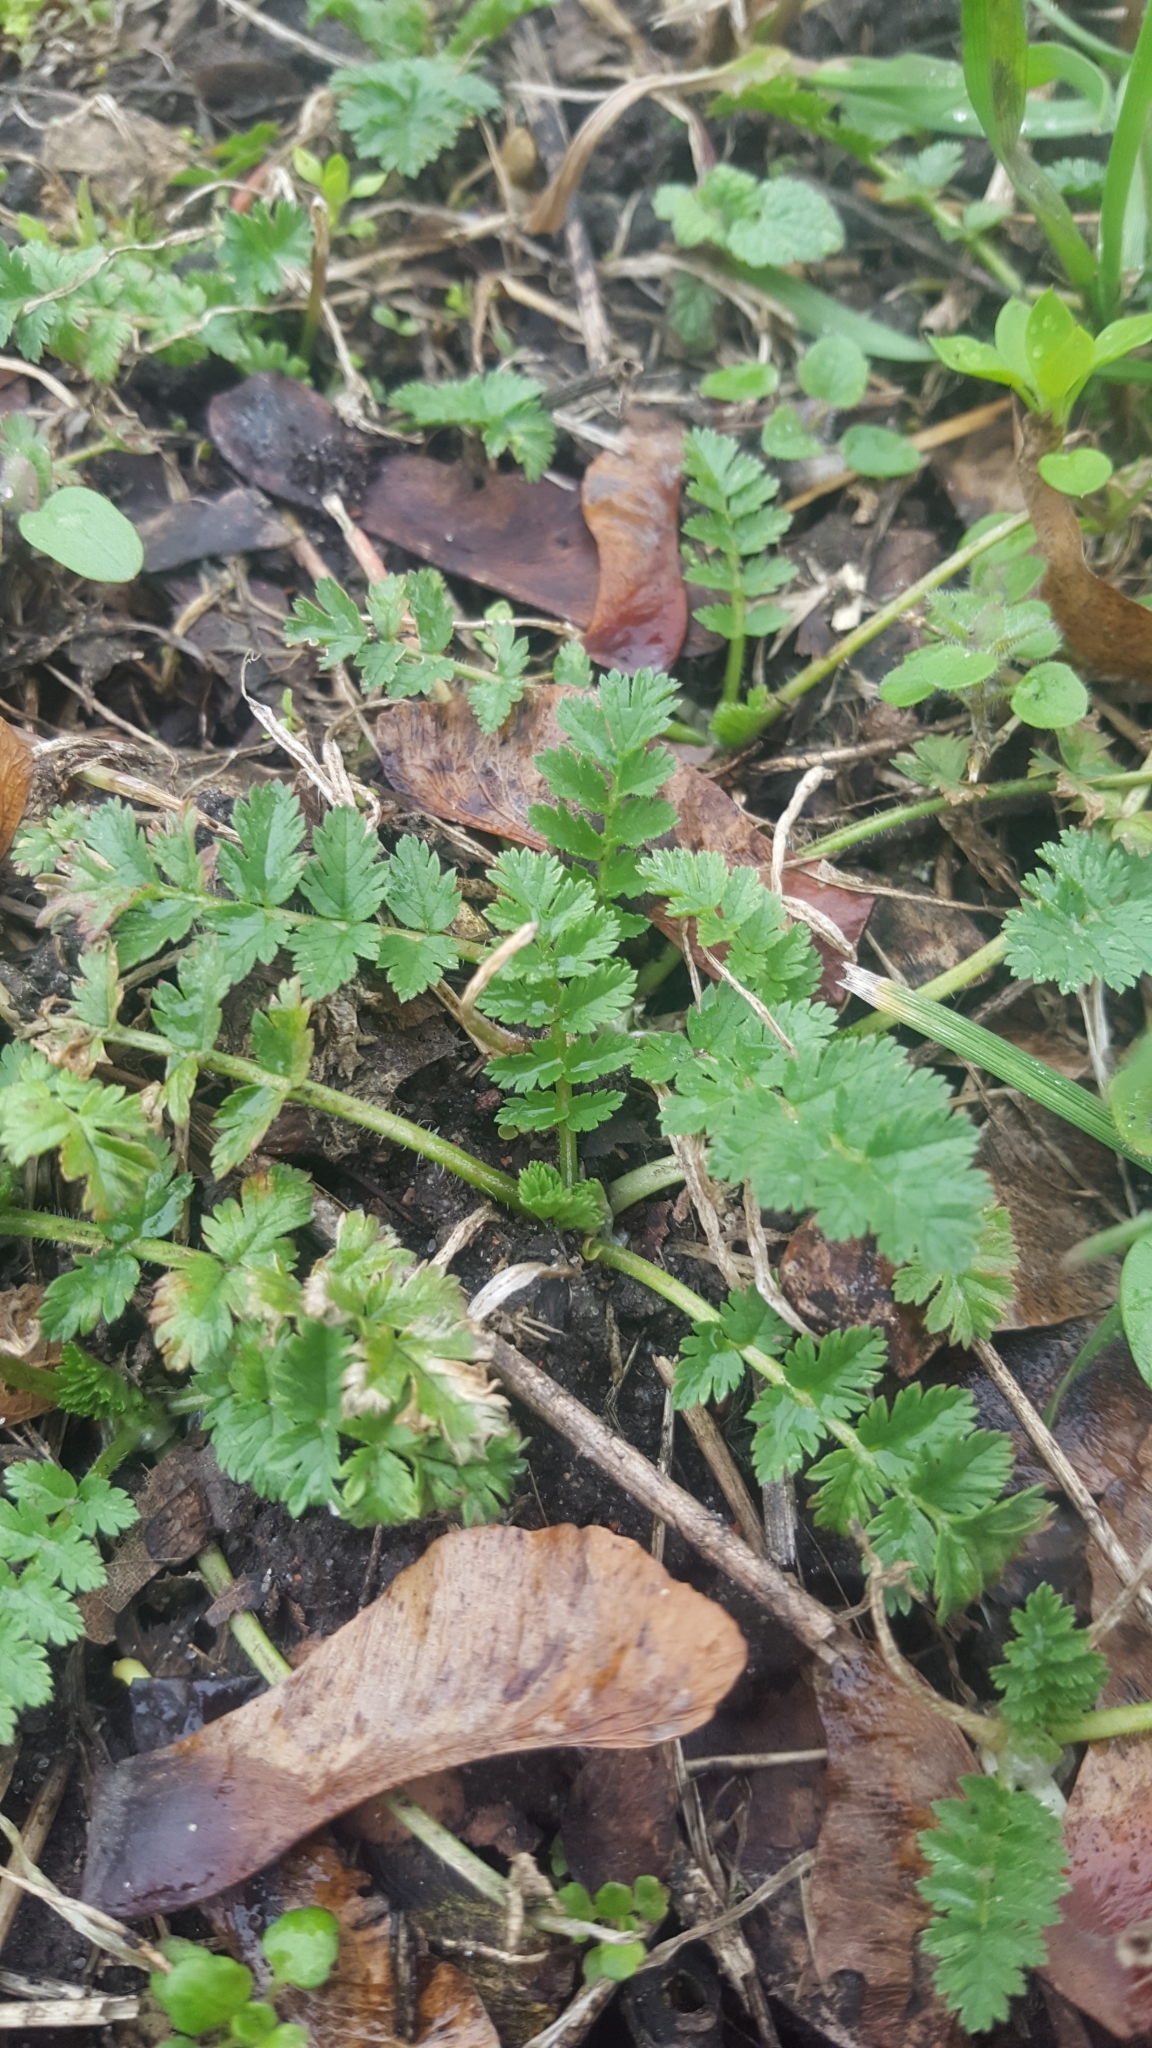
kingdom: Plantae
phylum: Tracheophyta
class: Magnoliopsida
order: Geraniales
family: Geraniaceae
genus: Erodium
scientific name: Erodium cicutarium
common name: Common stork's-bill
